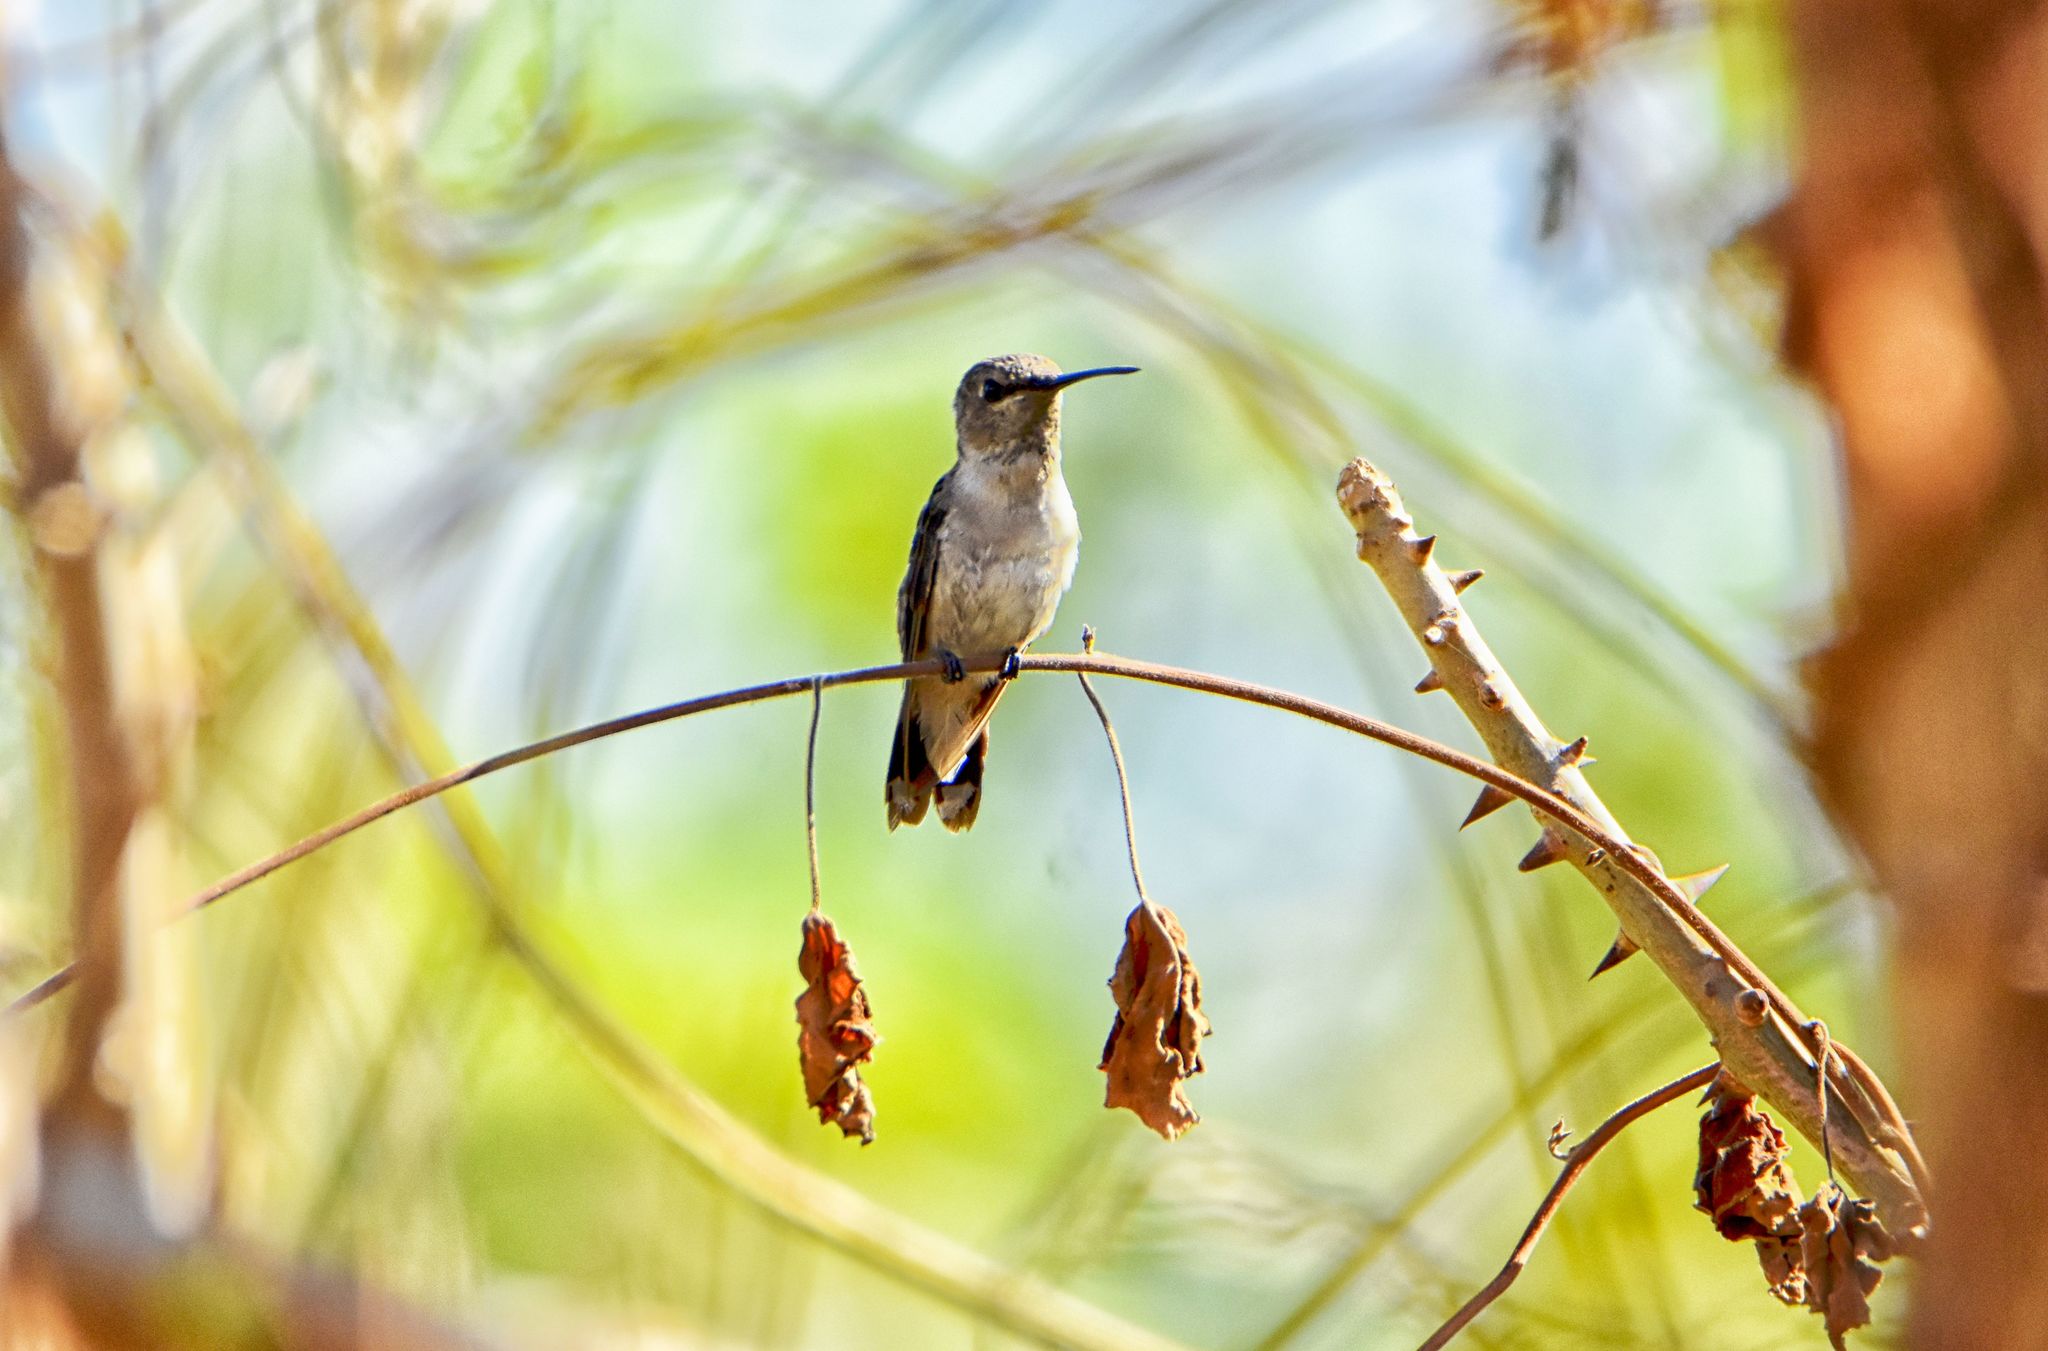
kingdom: Animalia
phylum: Chordata
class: Aves
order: Apodiformes
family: Trochilidae
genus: Archilochus
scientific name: Archilochus colubris
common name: Ruby-throated hummingbird
